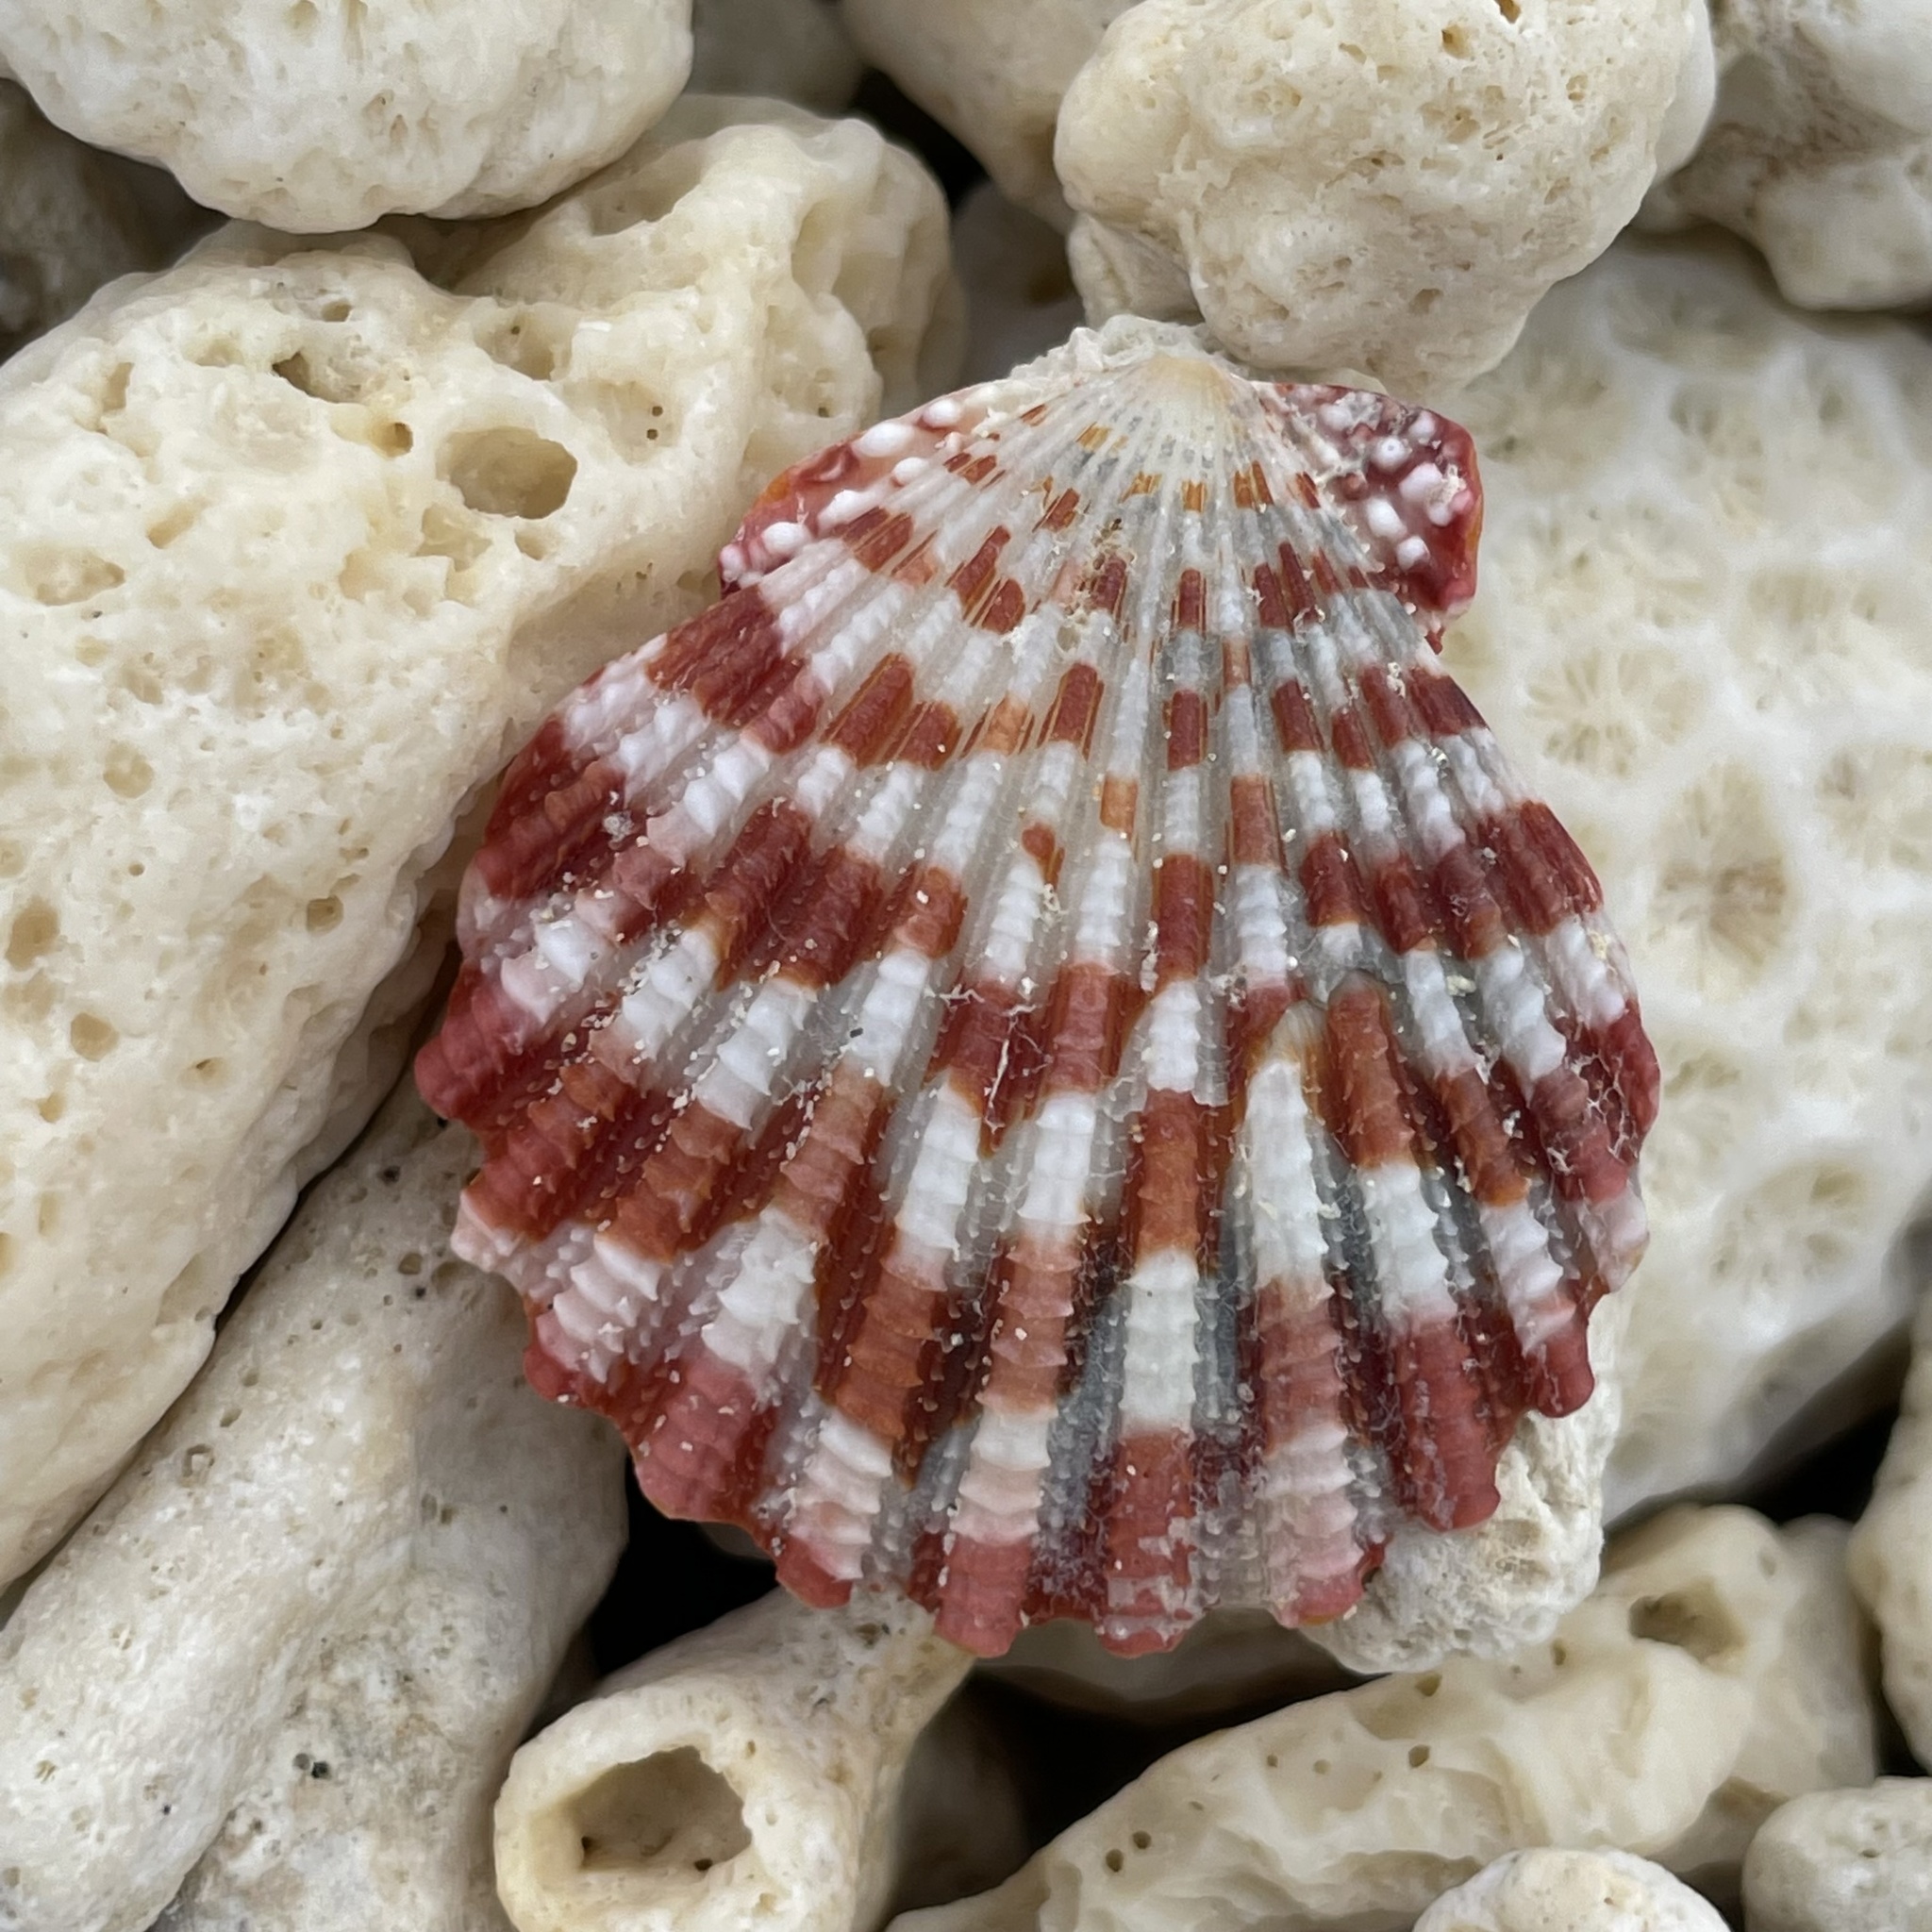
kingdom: Animalia
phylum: Mollusca
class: Bivalvia
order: Pectinida
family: Pectinidae
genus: Gloripallium
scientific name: Gloripallium speciosum
